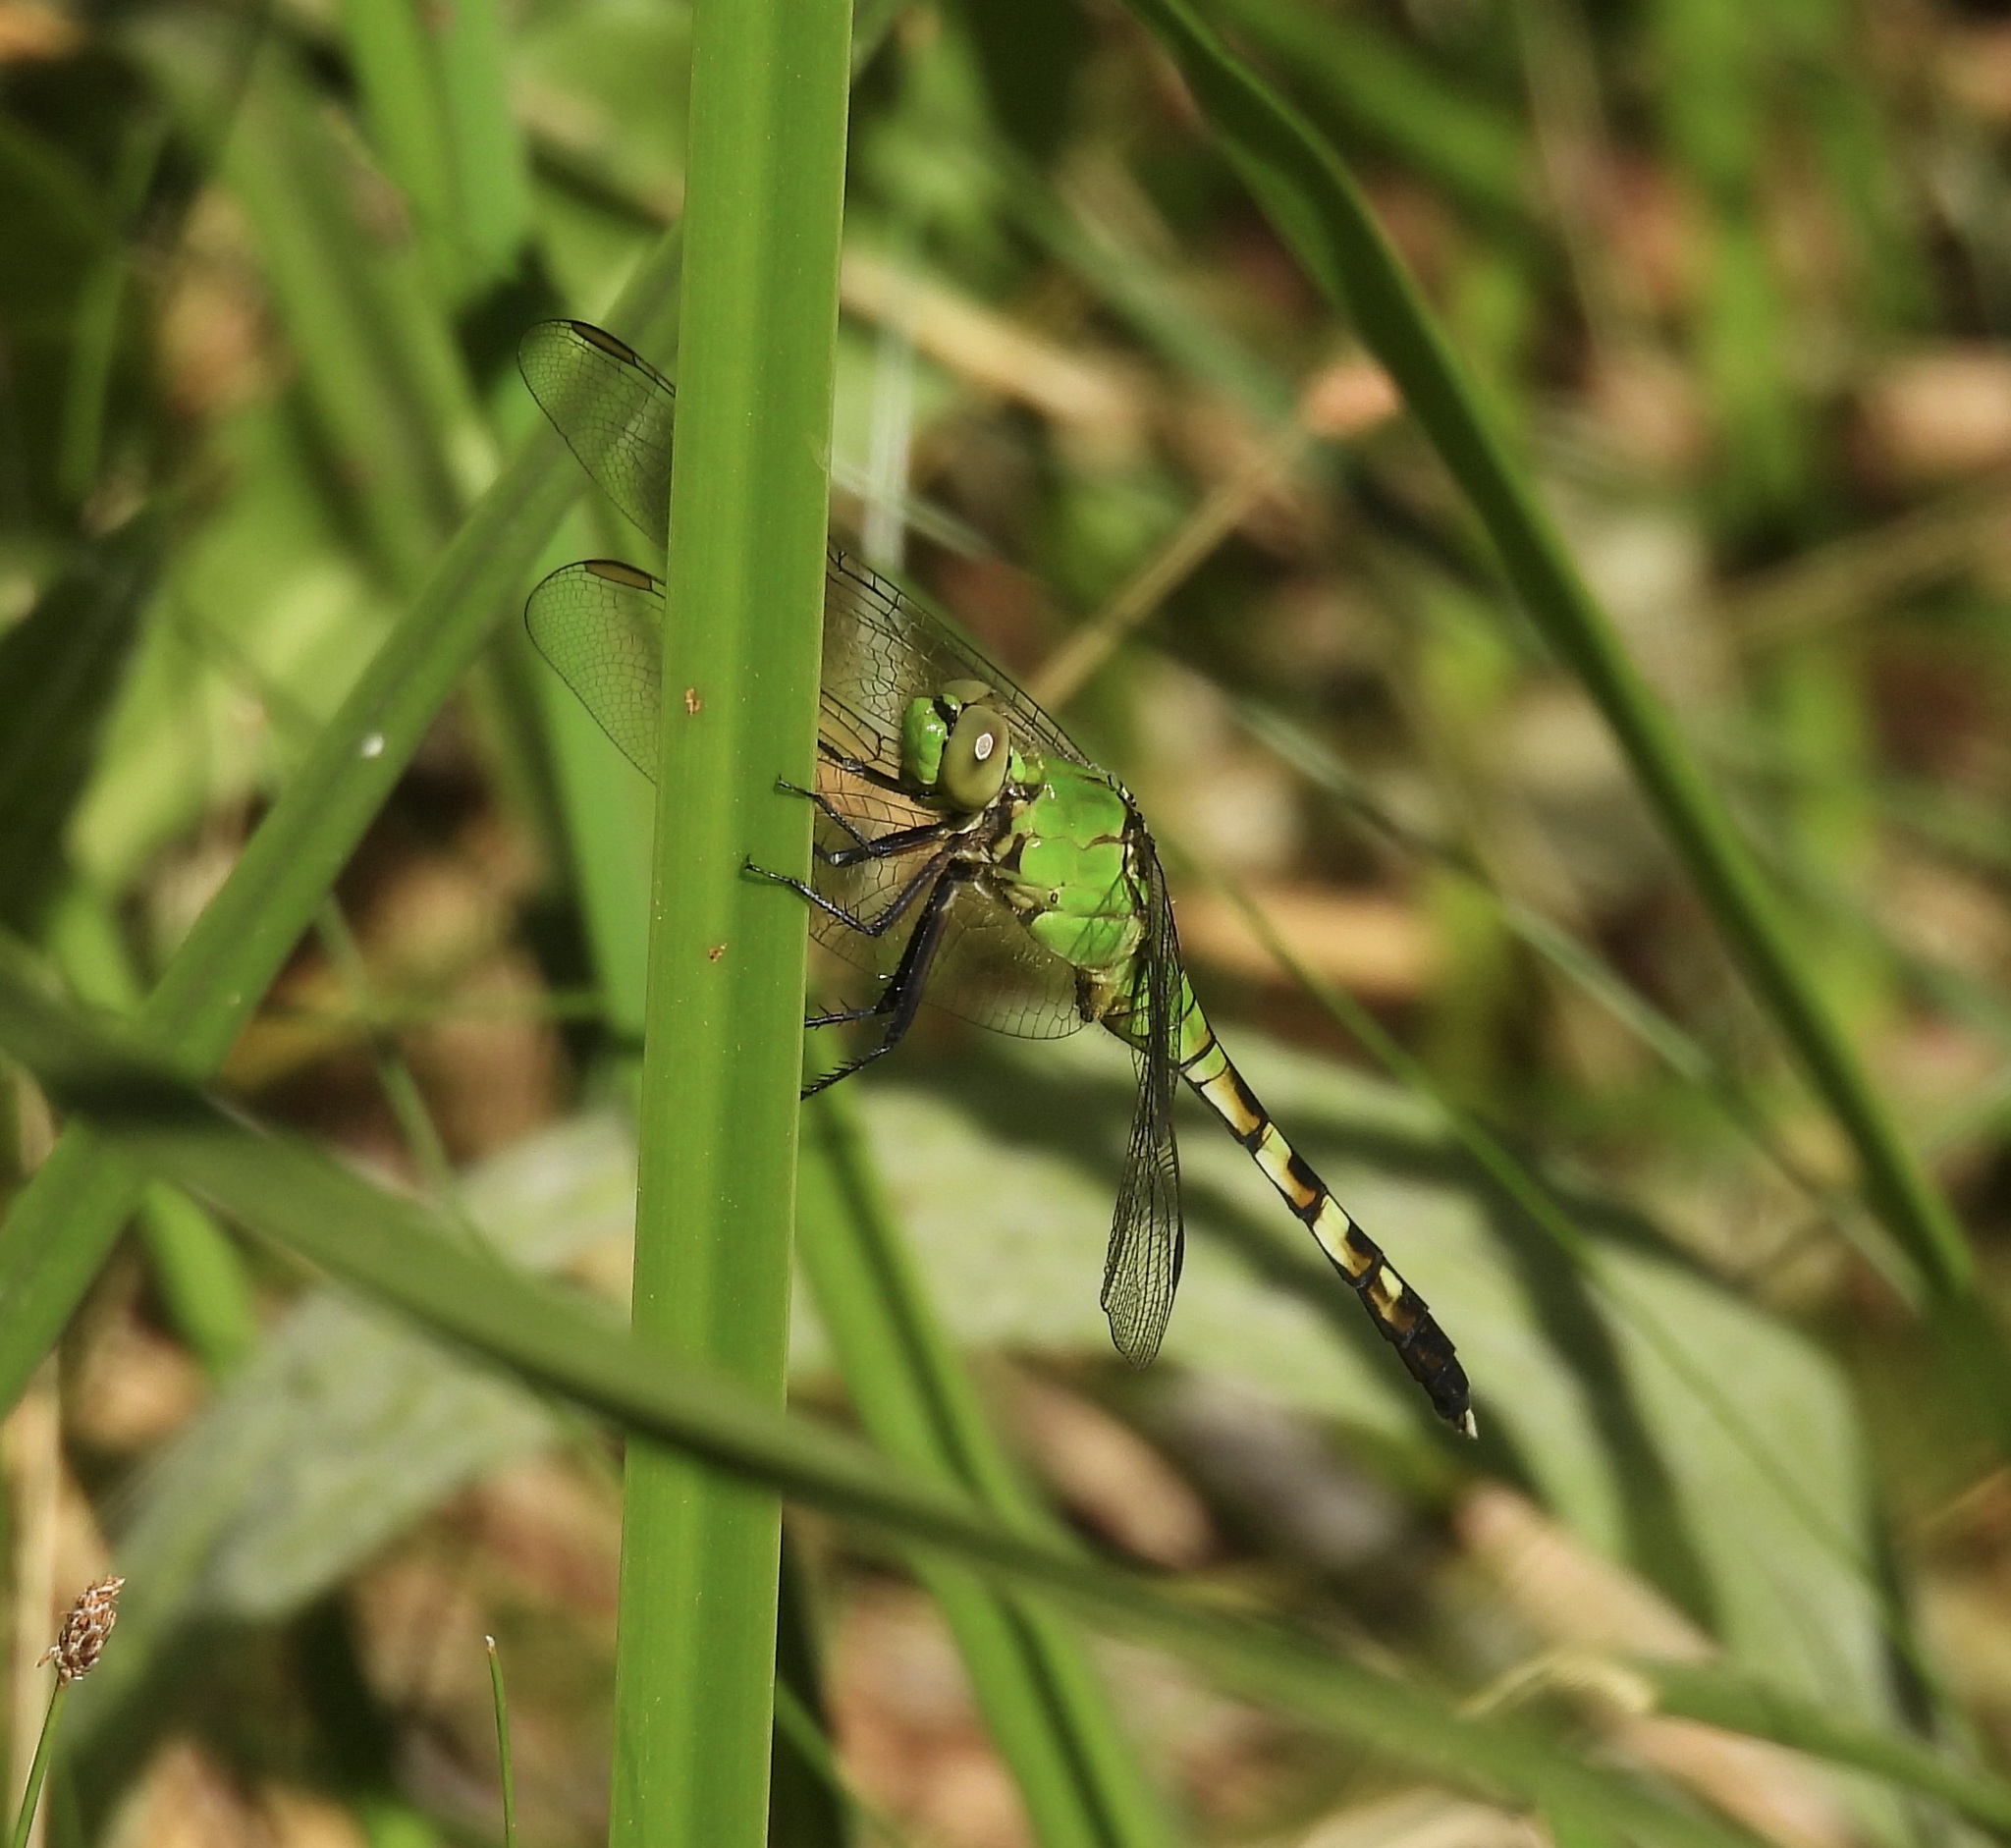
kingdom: Animalia
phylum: Arthropoda
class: Insecta
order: Odonata
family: Libellulidae
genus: Erythemis
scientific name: Erythemis simplicicollis
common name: Eastern pondhawk
